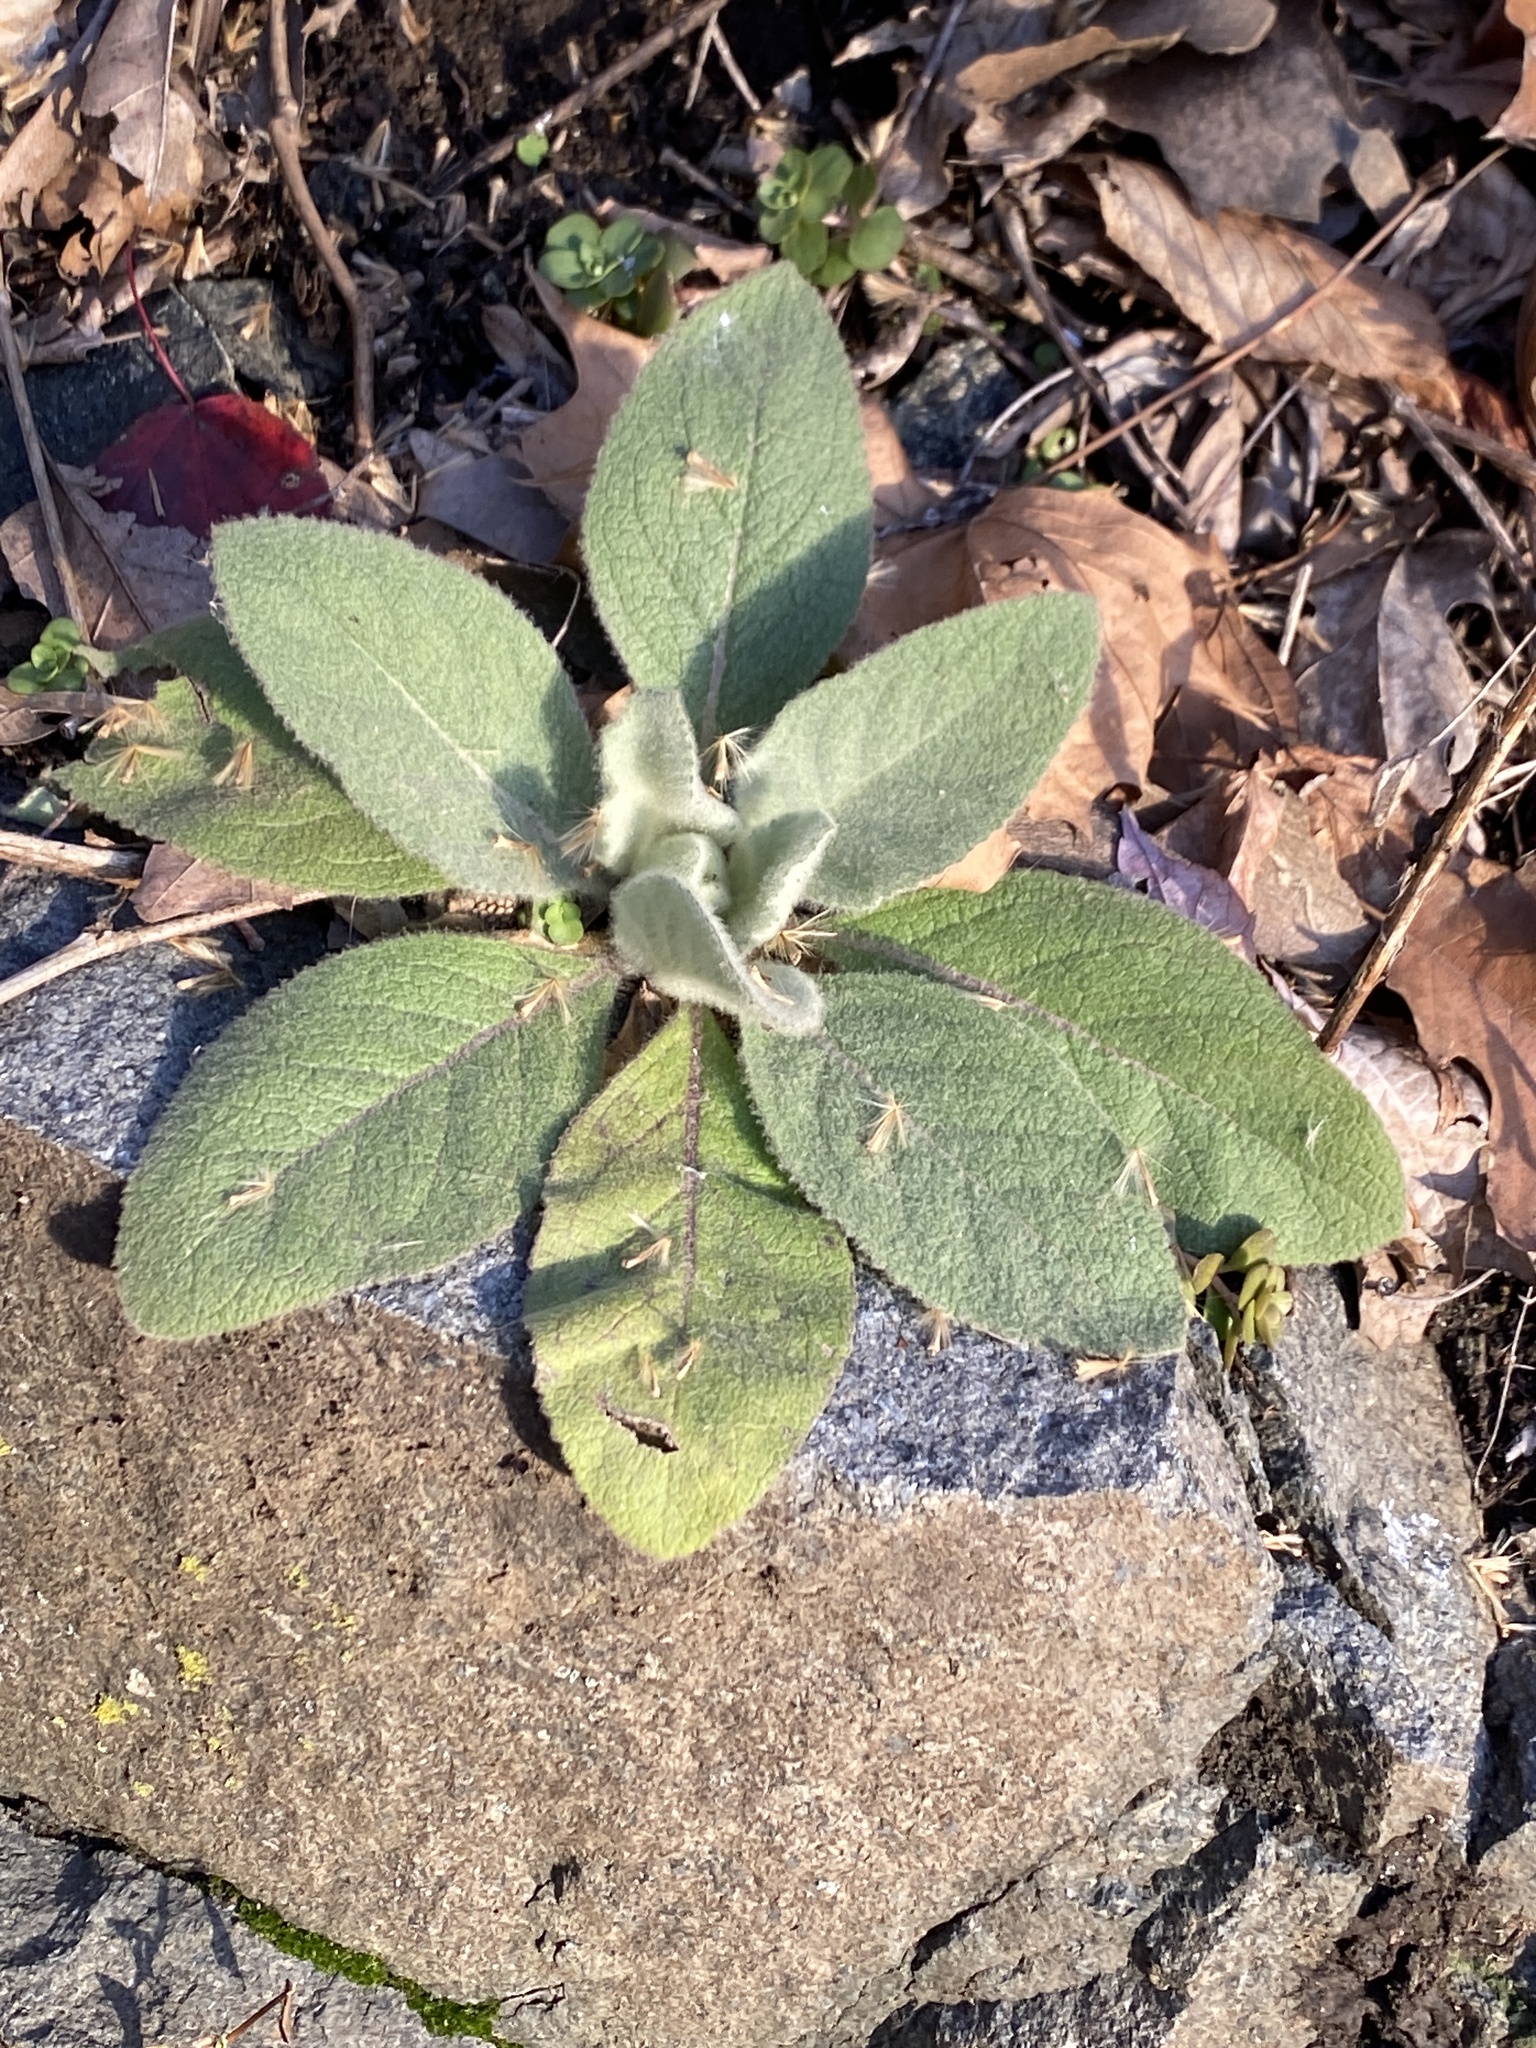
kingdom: Plantae
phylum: Tracheophyta
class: Magnoliopsida
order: Lamiales
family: Scrophulariaceae
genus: Verbascum
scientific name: Verbascum thapsus
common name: Common mullein
